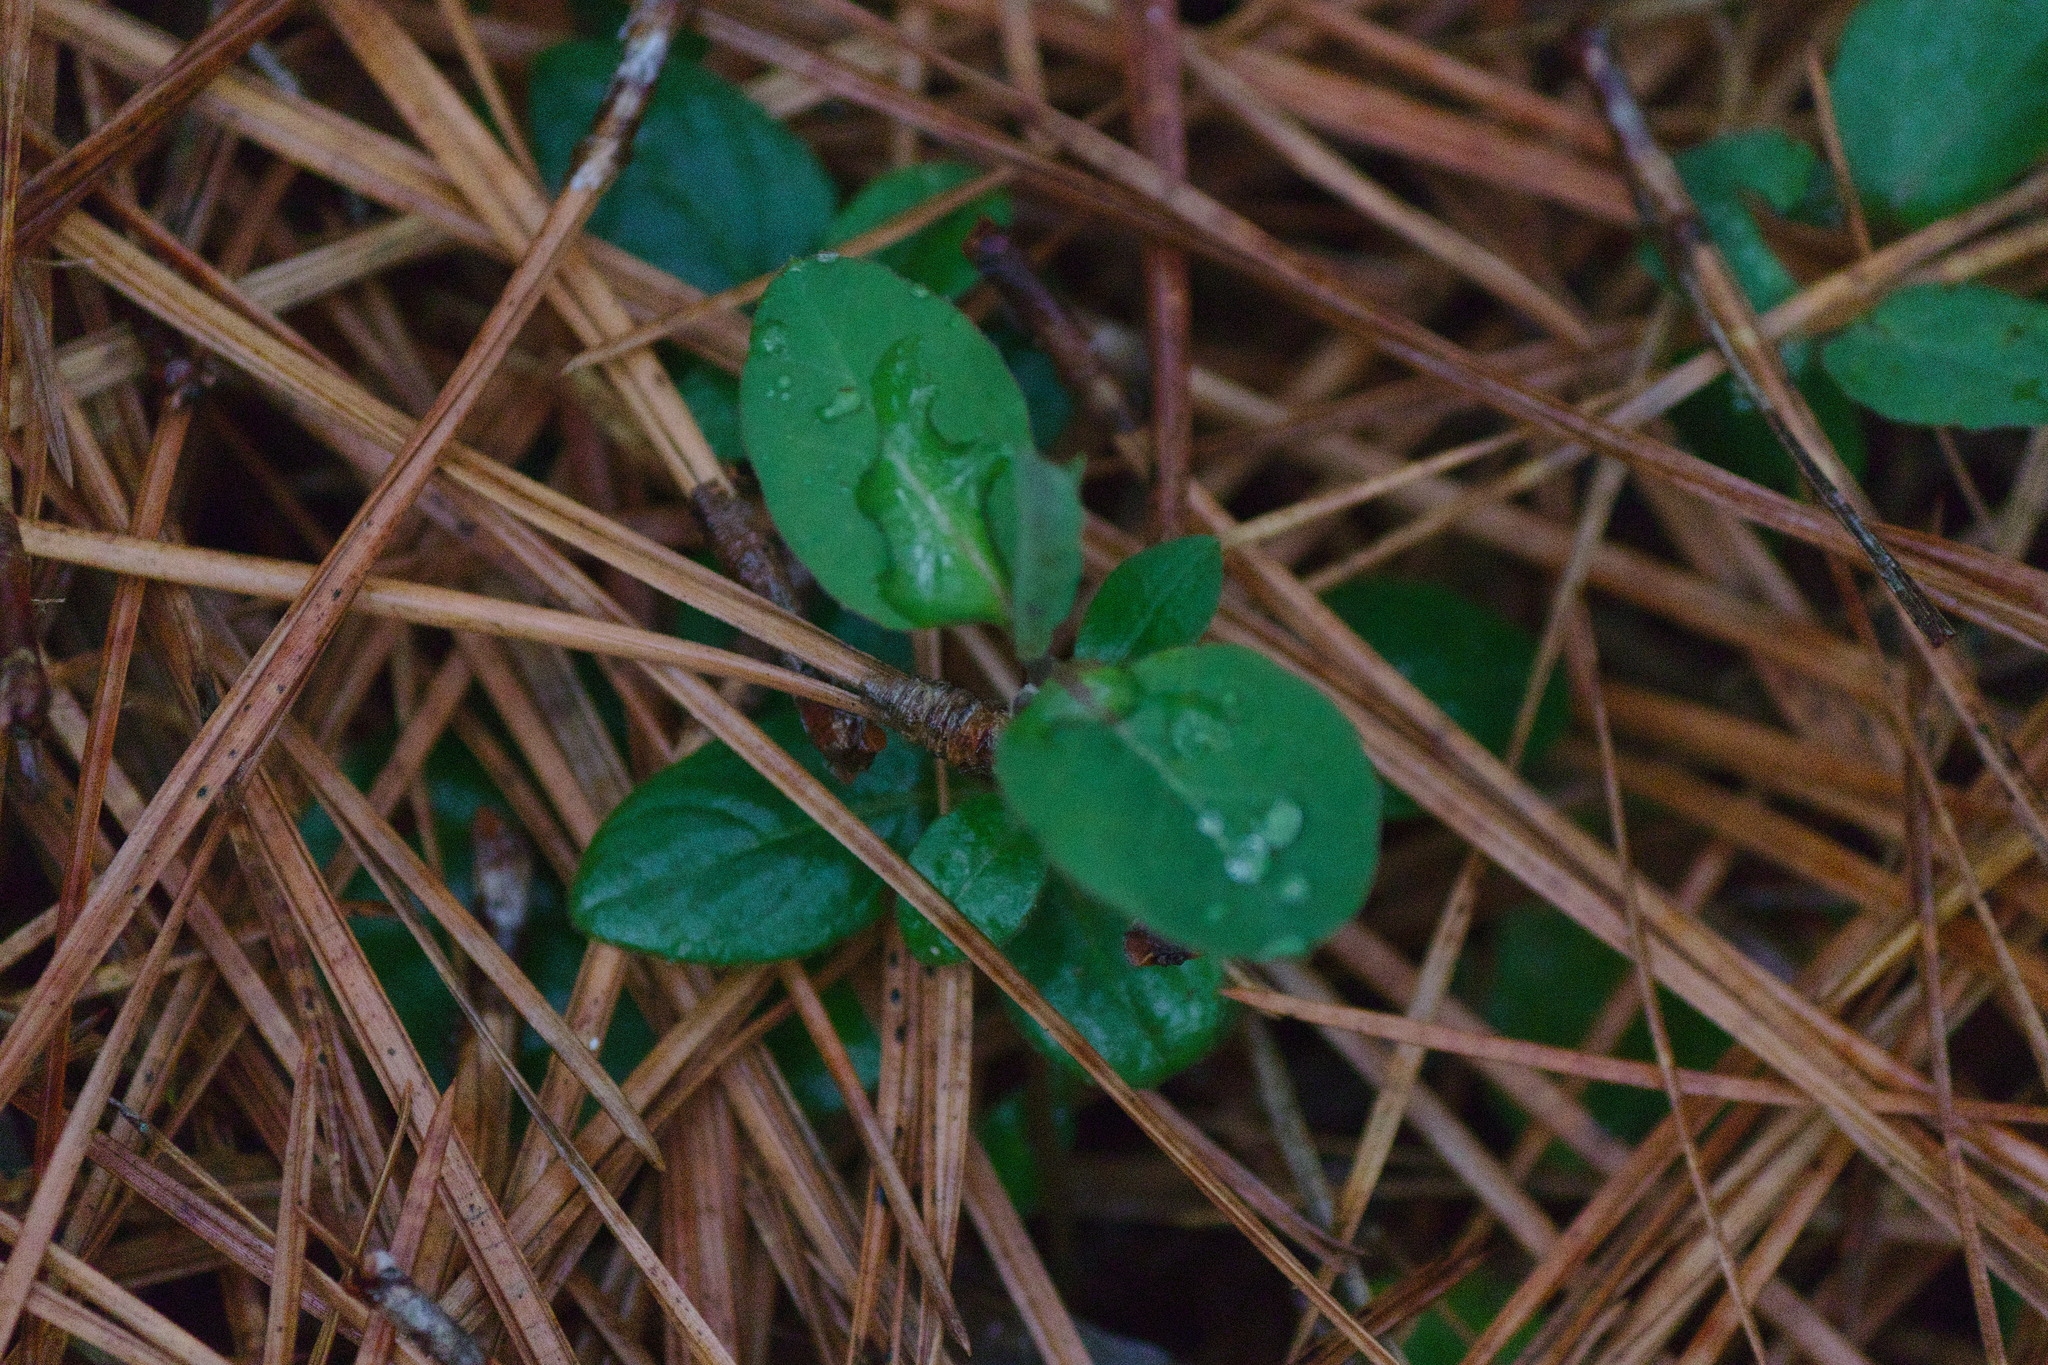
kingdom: Plantae
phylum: Tracheophyta
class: Magnoliopsida
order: Gentianales
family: Rubiaceae
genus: Mitchella
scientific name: Mitchella repens
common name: Partridge-berry
